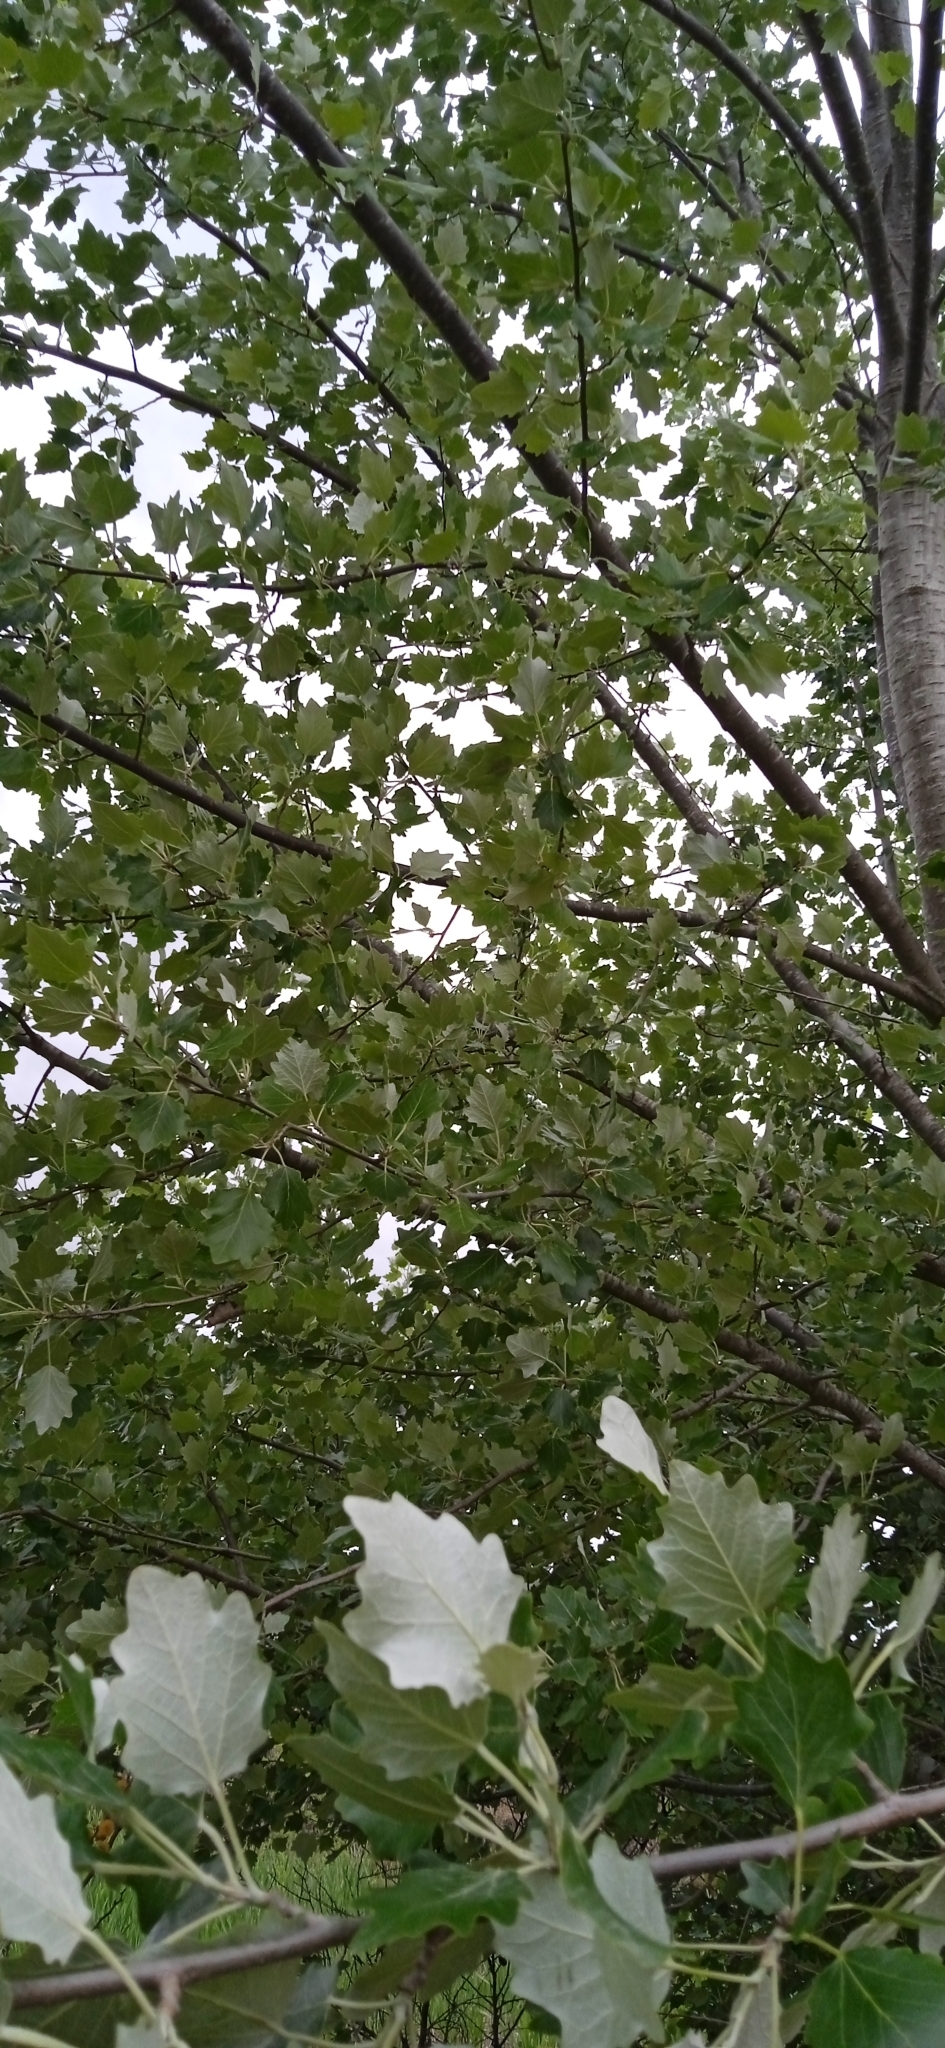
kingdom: Plantae
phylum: Tracheophyta
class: Magnoliopsida
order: Malpighiales
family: Salicaceae
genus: Populus
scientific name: Populus alba
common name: White poplar
